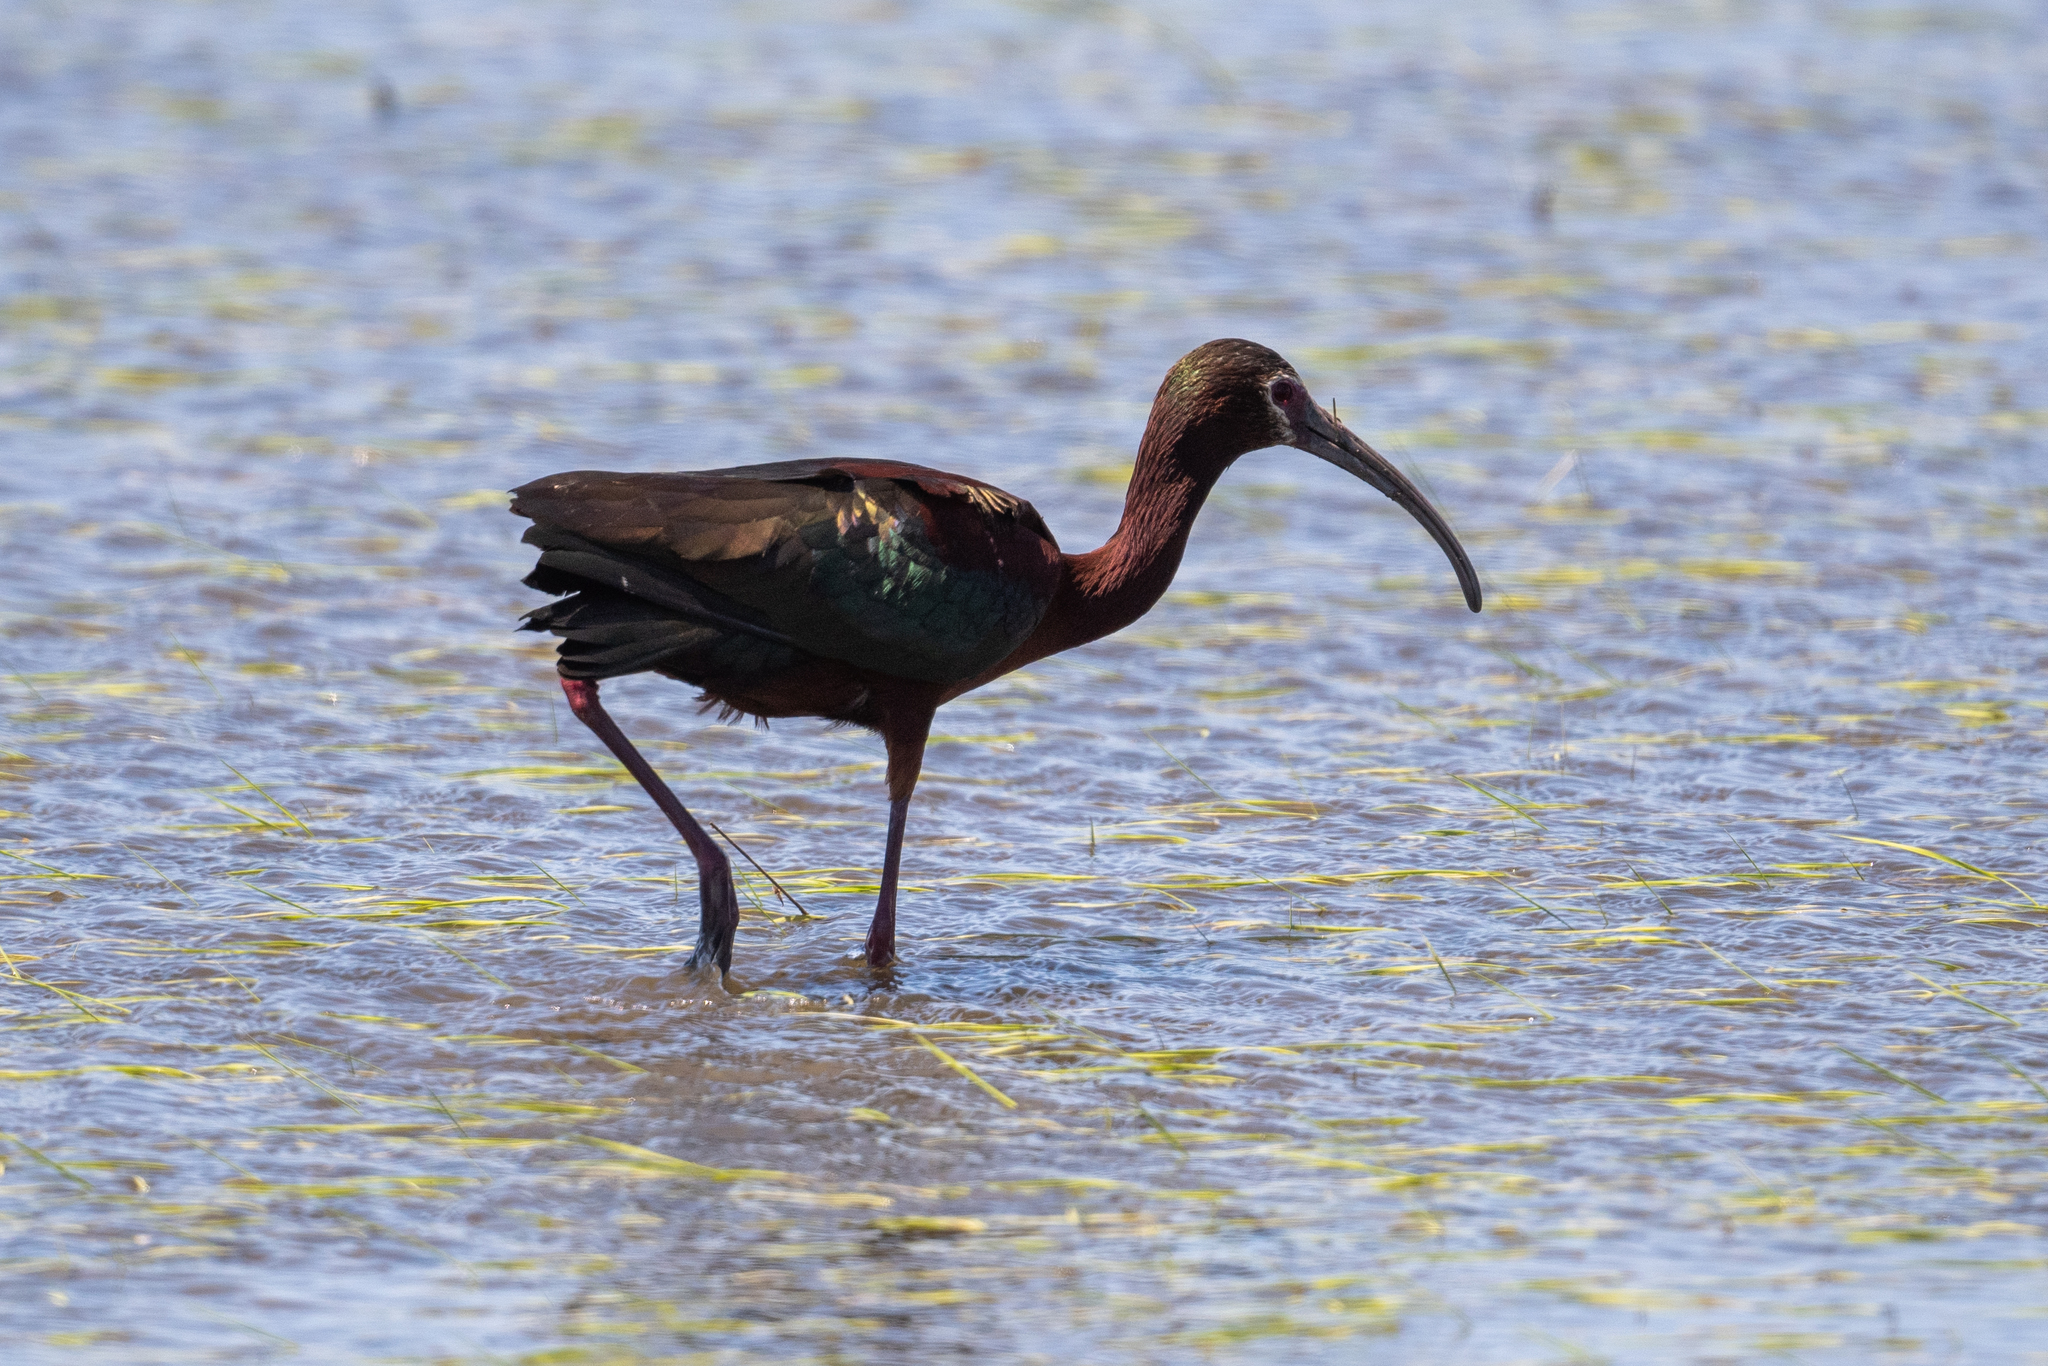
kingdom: Animalia
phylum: Chordata
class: Aves
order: Pelecaniformes
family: Threskiornithidae
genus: Plegadis
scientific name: Plegadis chihi
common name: White-faced ibis
